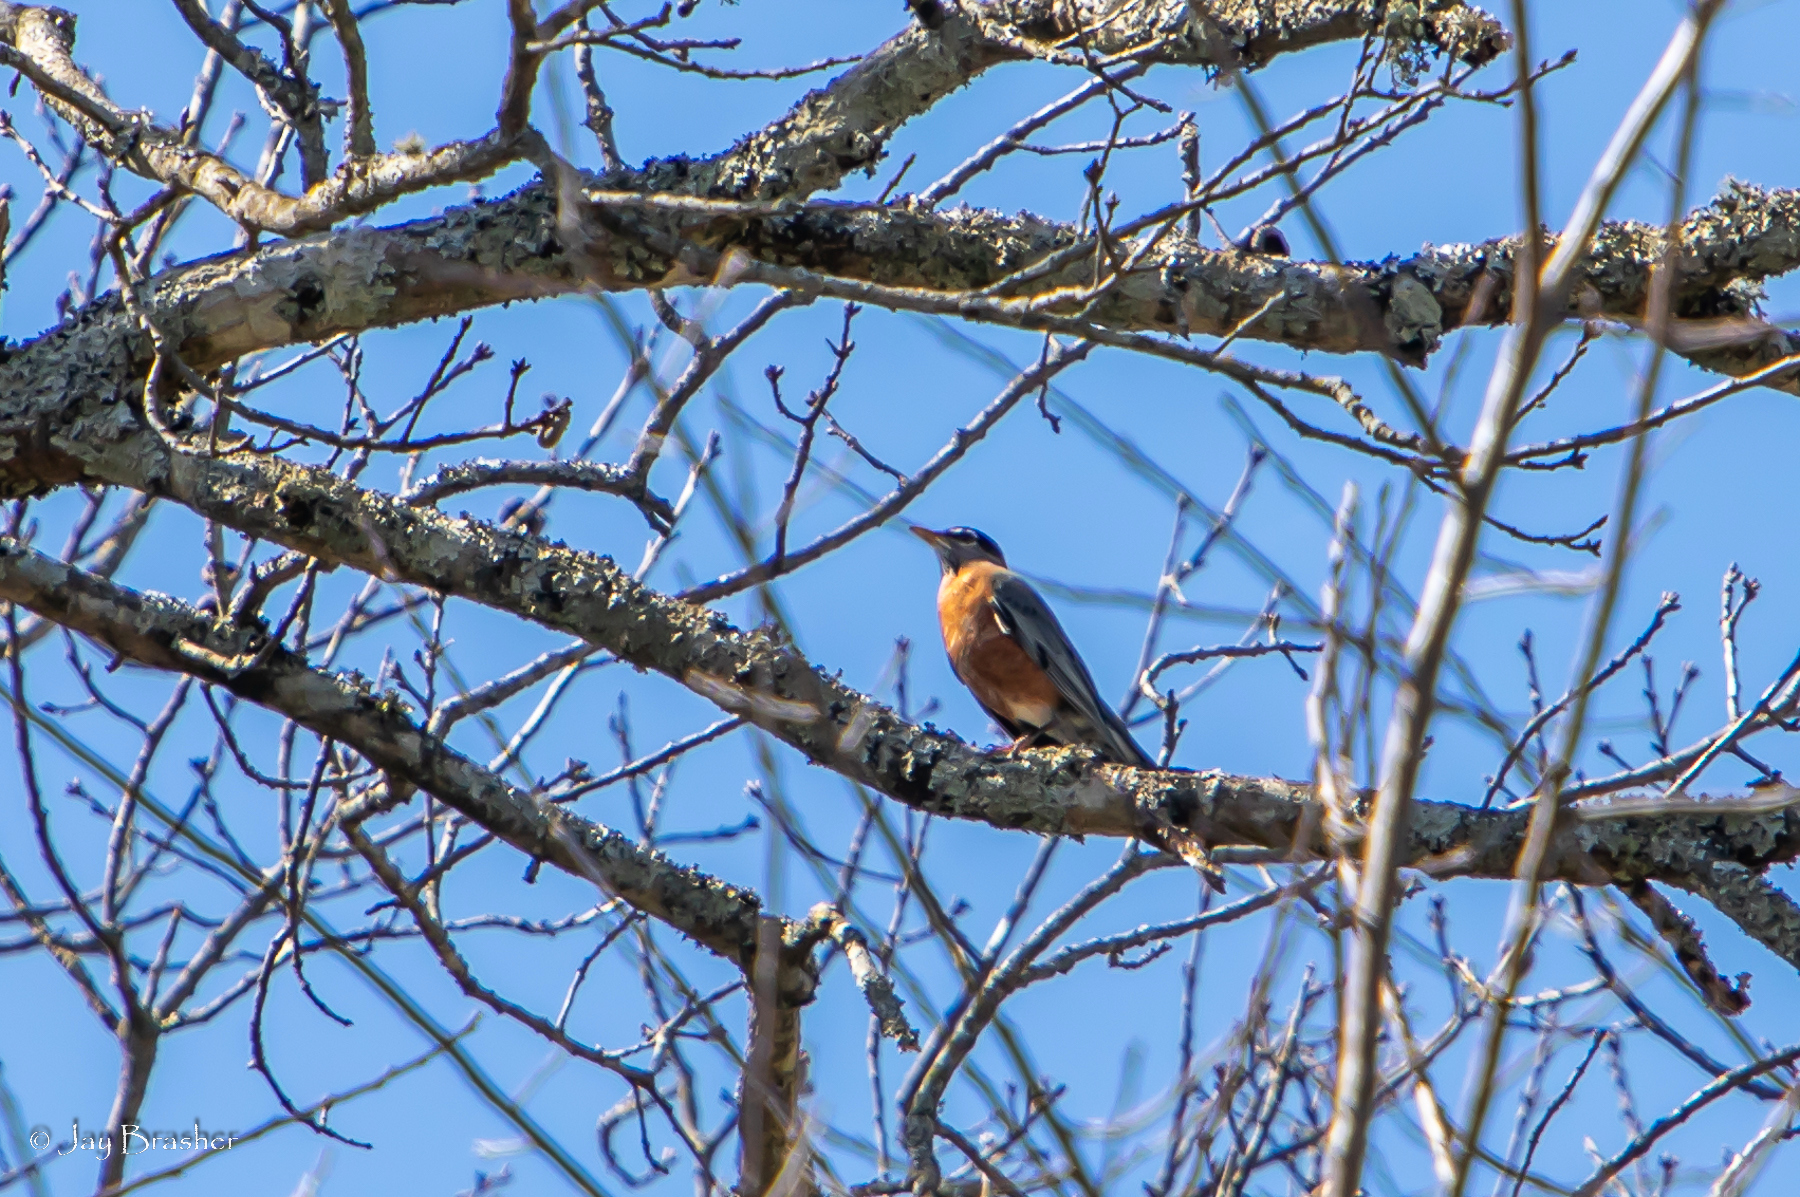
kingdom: Animalia
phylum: Chordata
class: Aves
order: Passeriformes
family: Turdidae
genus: Turdus
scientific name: Turdus migratorius
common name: American robin
